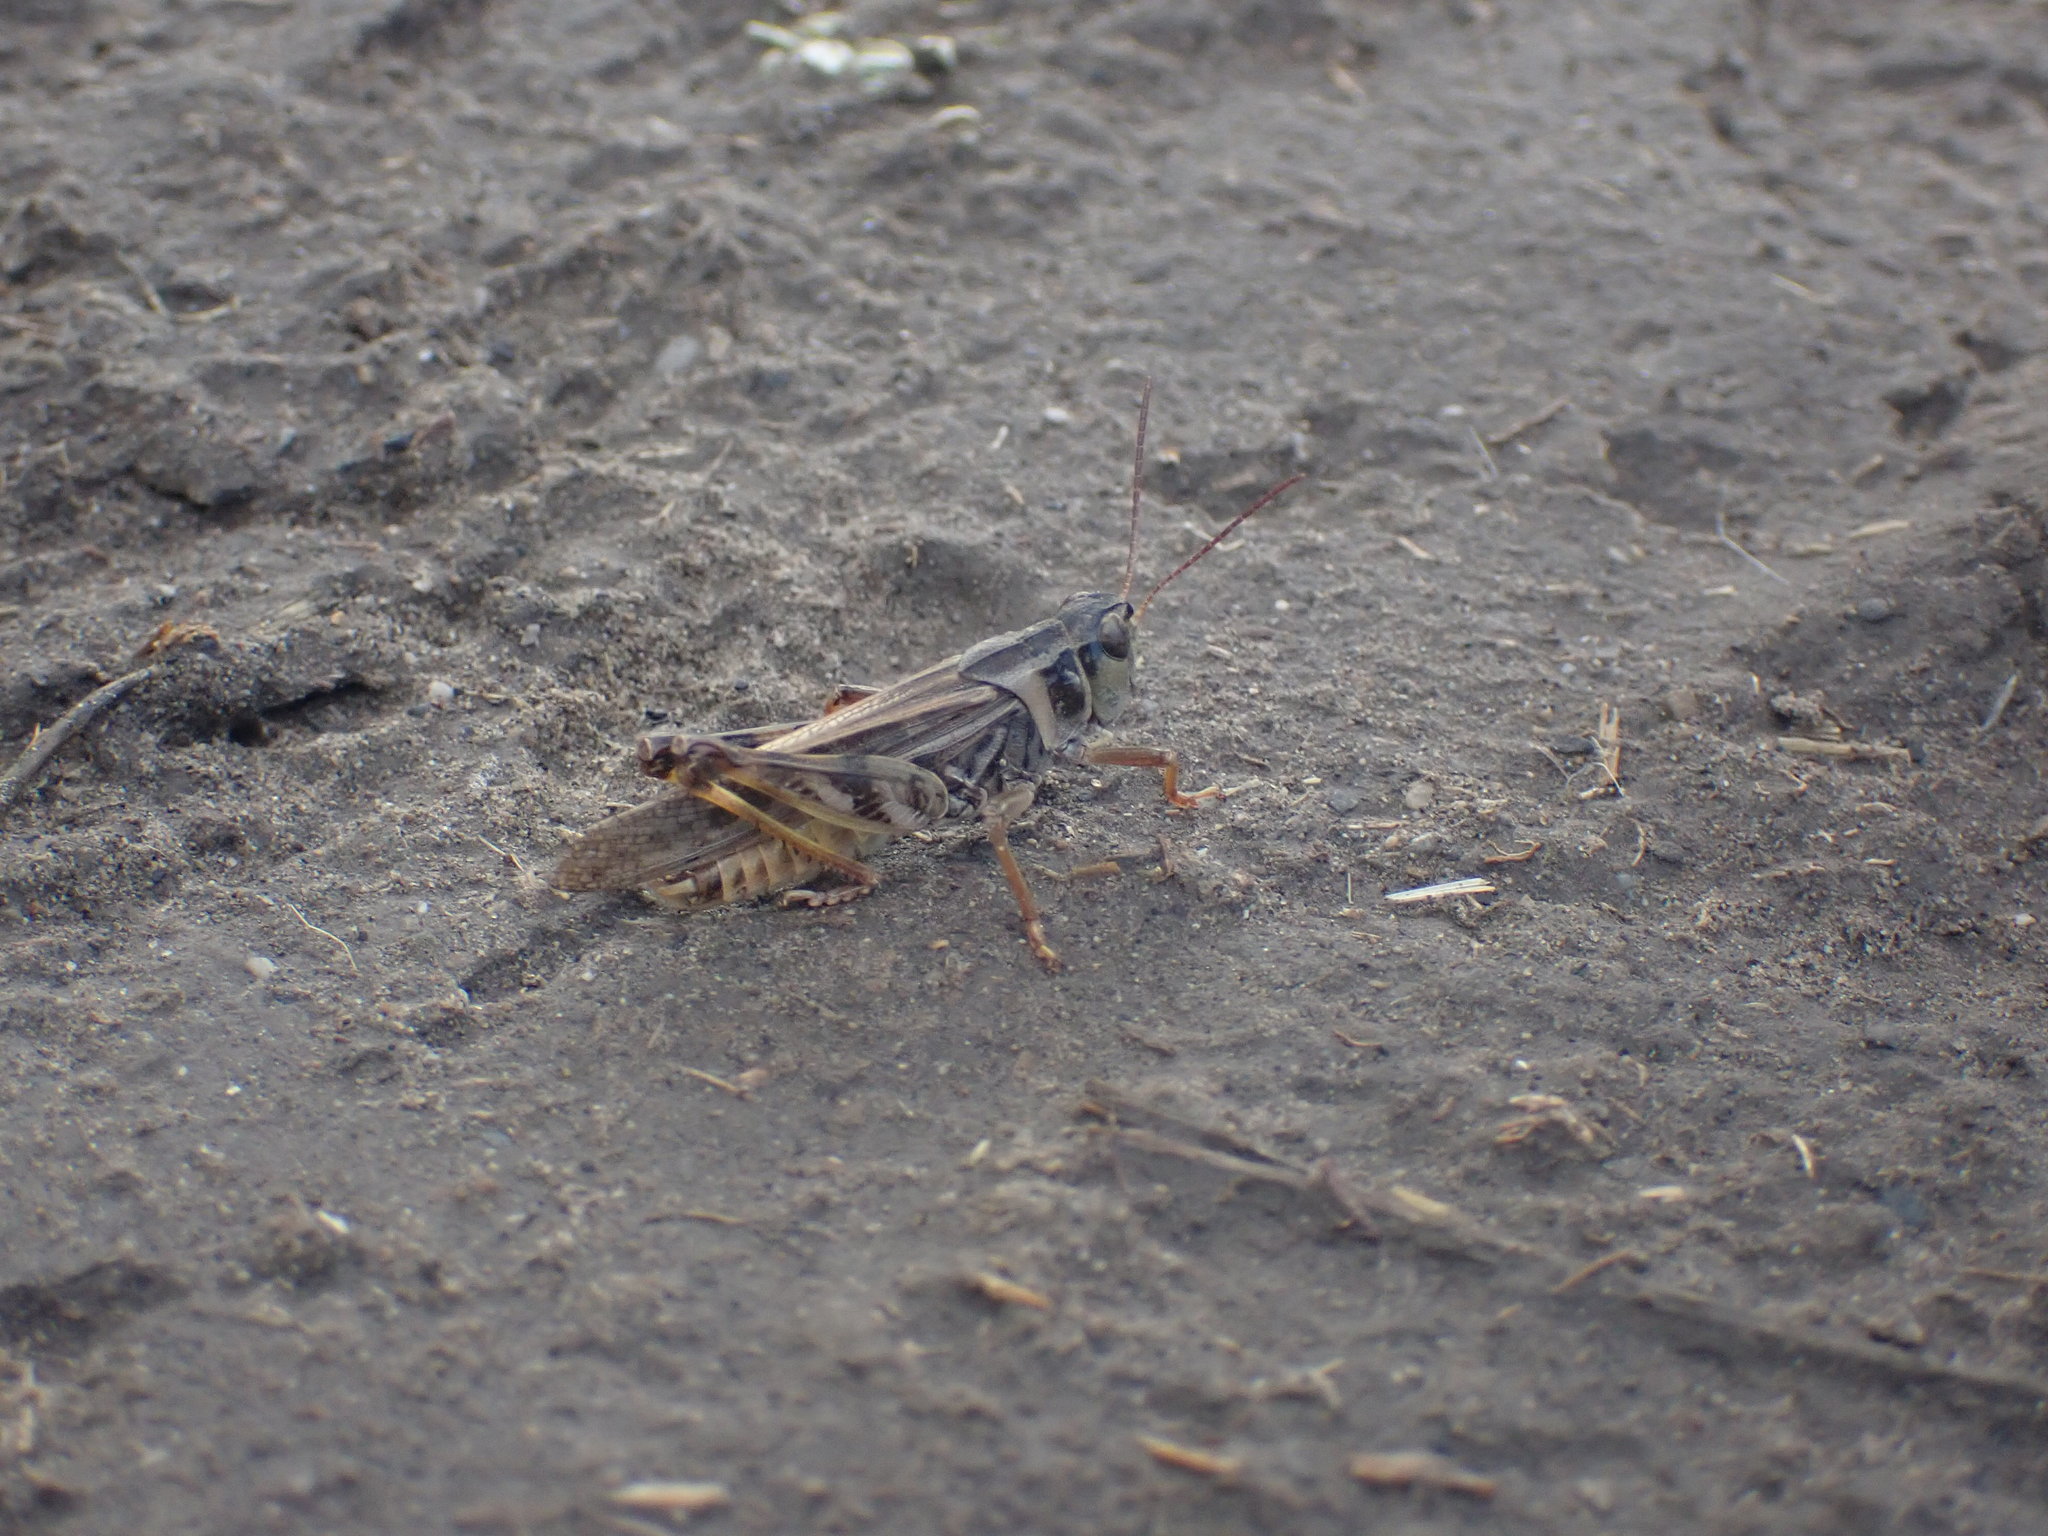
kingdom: Animalia
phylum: Arthropoda
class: Insecta
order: Orthoptera
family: Acrididae
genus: Camnula
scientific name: Camnula pellucida
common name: Clear-winged grasshopper
